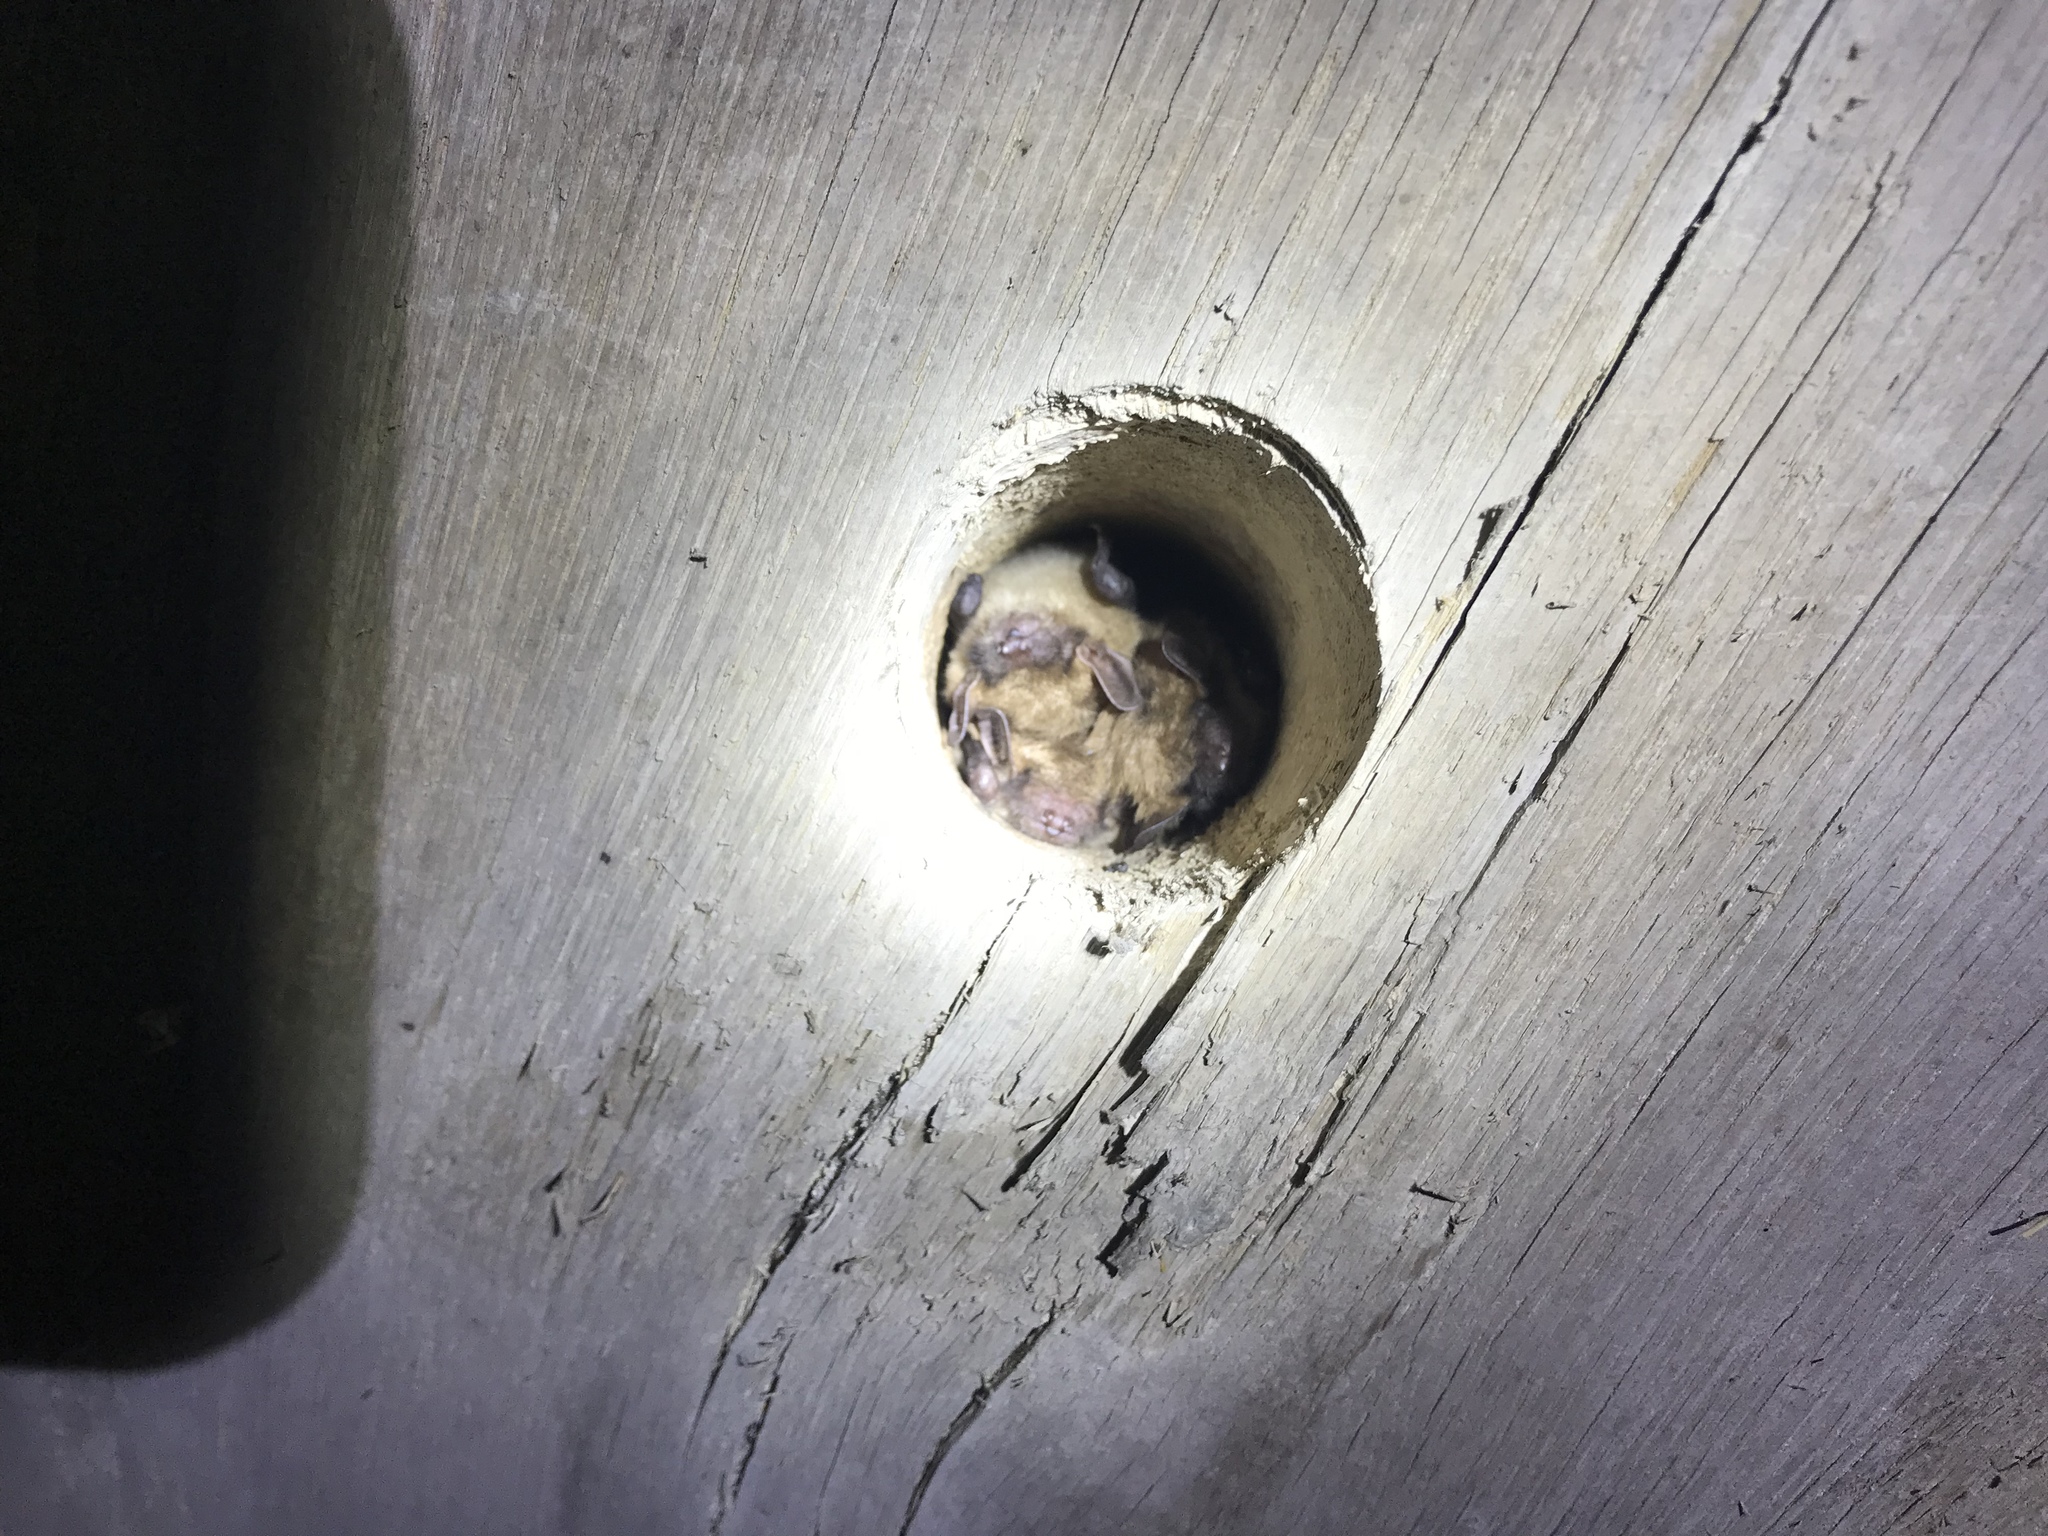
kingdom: Animalia
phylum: Chordata
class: Mammalia
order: Chiroptera
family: Vespertilionidae
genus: Eptesicus
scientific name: Eptesicus fuscus
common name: Big brown bat
